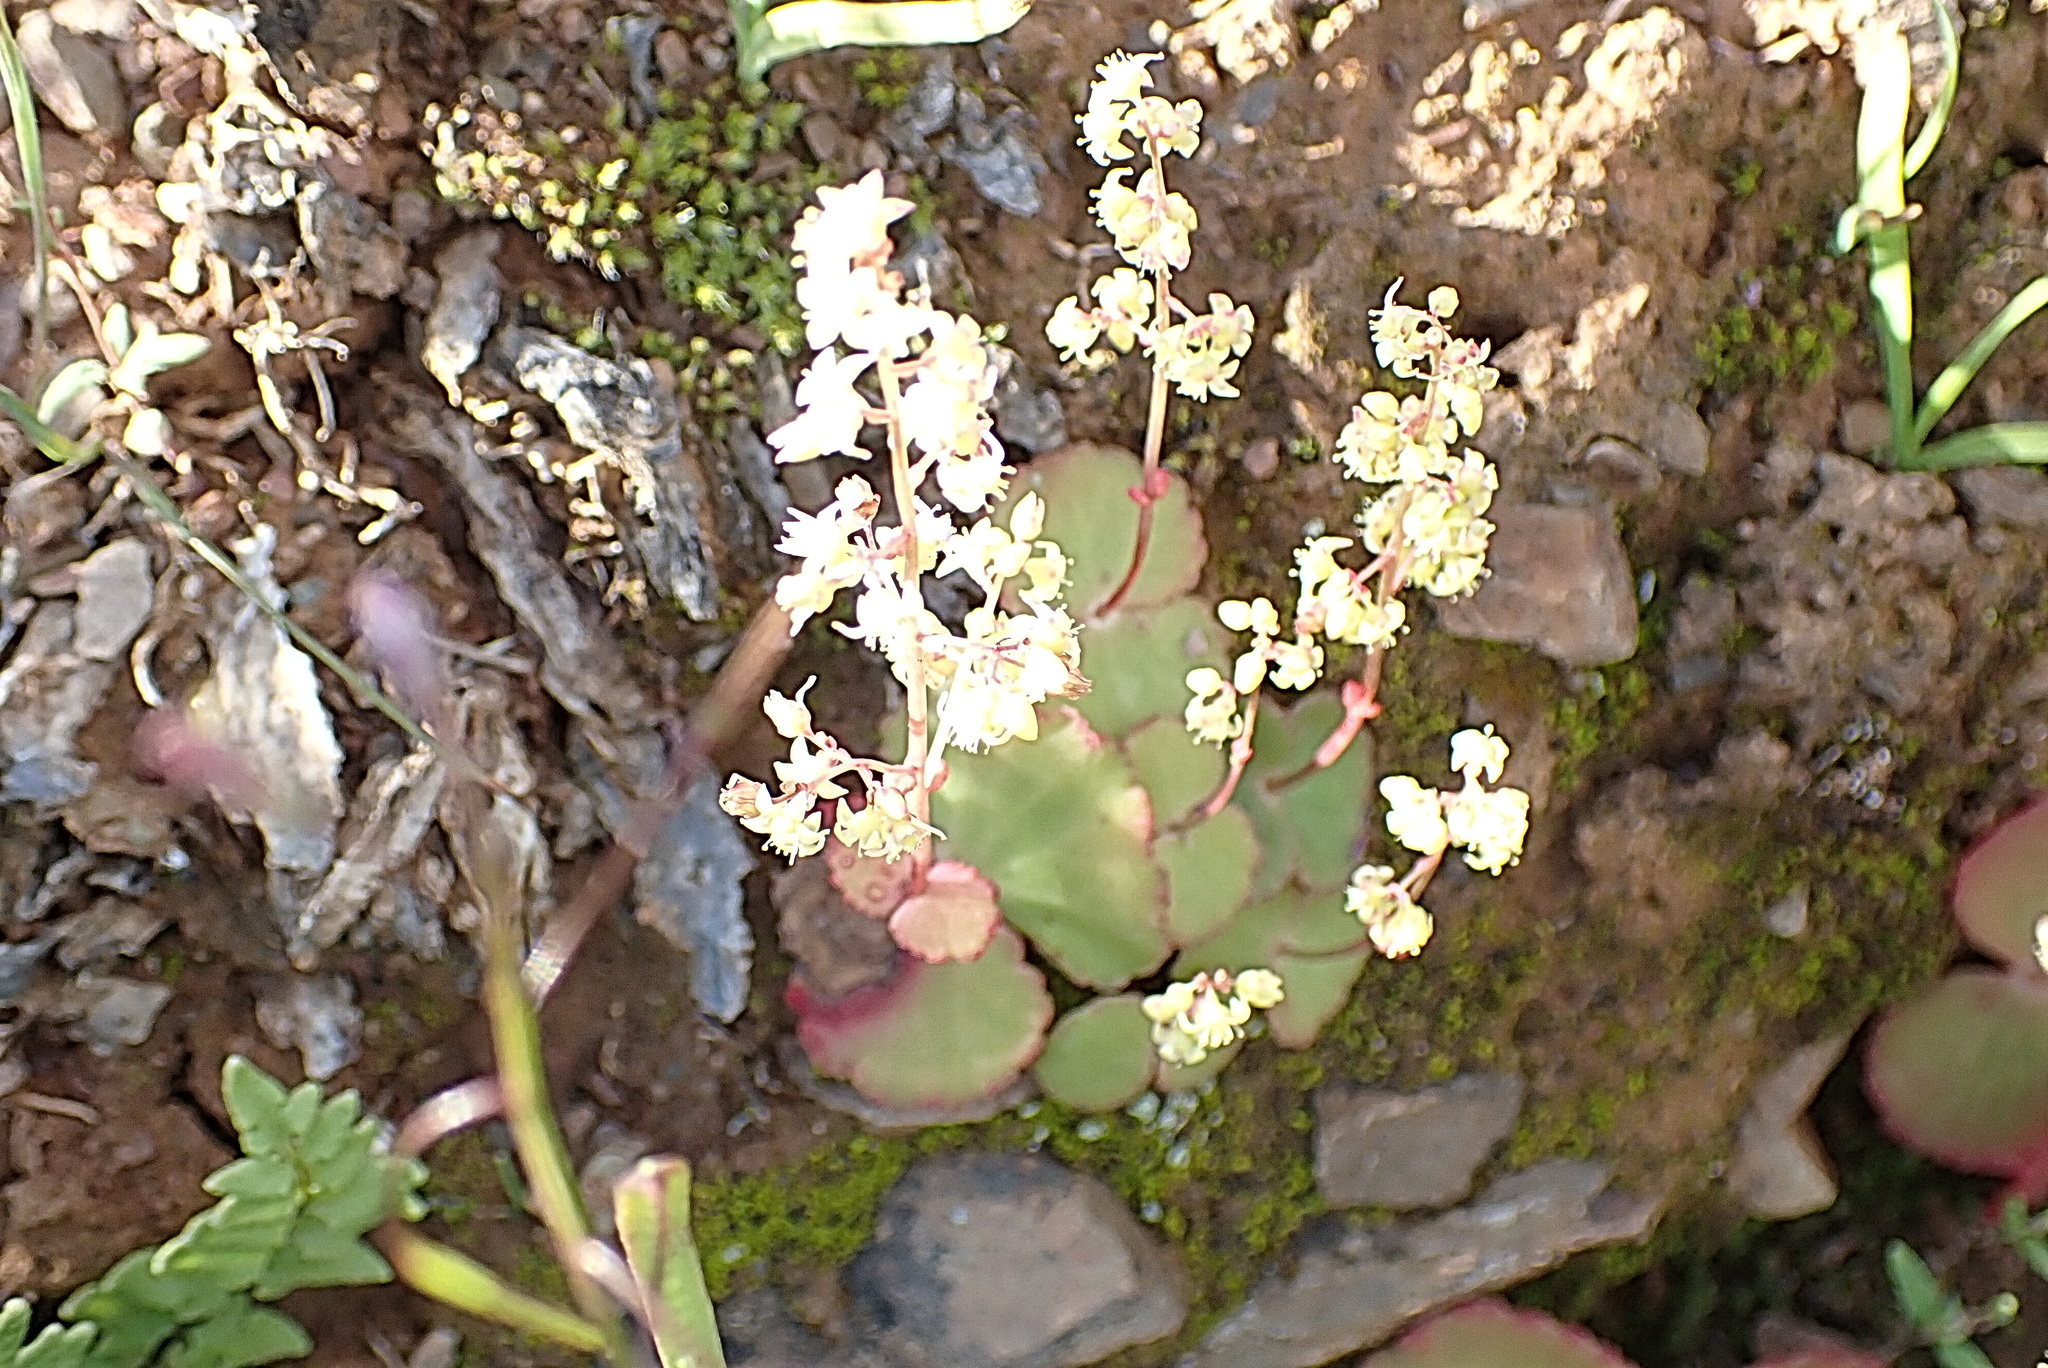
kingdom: Plantae
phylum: Tracheophyta
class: Magnoliopsida
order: Saxifragales
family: Crassulaceae
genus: Crassula
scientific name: Crassula umbella
